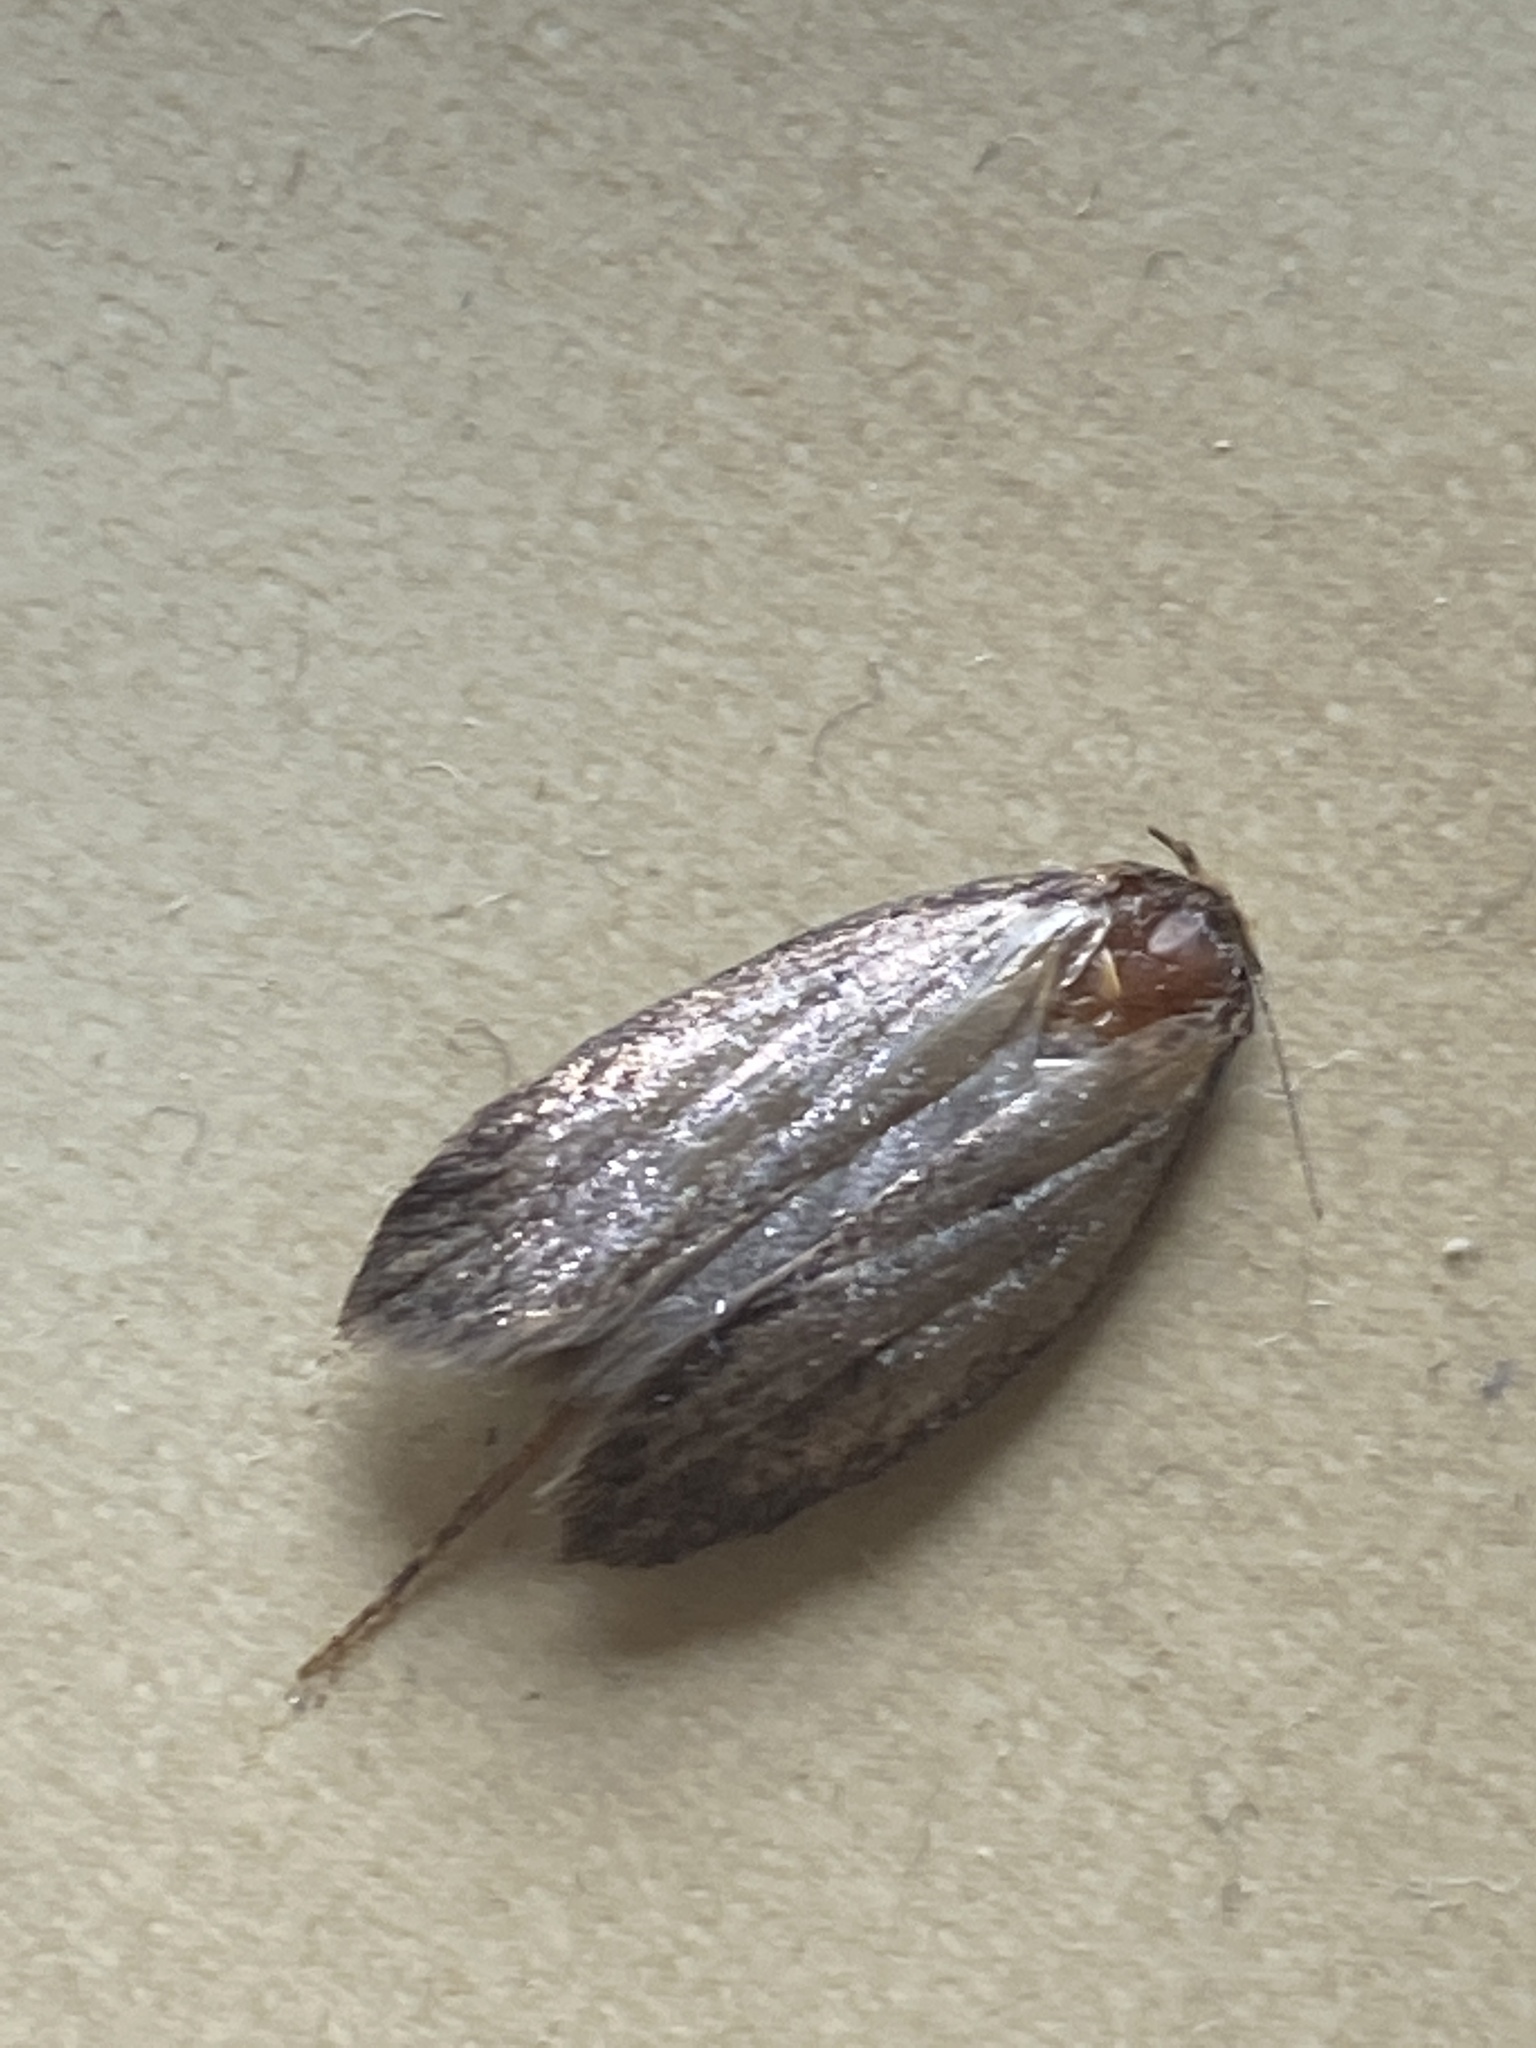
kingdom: Animalia
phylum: Arthropoda
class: Insecta
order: Lepidoptera
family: Oecophoridae
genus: Hofmannophila
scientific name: Hofmannophila pseudospretella
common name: Brown house moth
